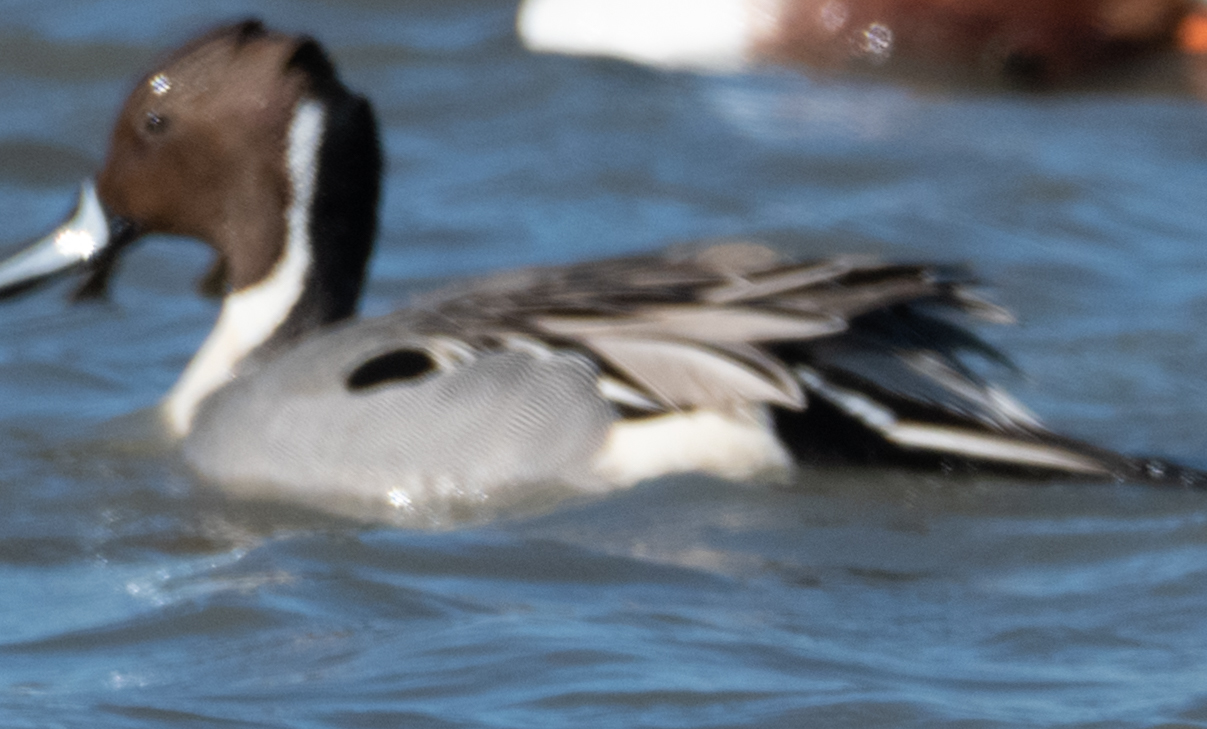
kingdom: Animalia
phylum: Chordata
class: Aves
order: Anseriformes
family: Anatidae
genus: Anas
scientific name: Anas acuta
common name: Northern pintail
